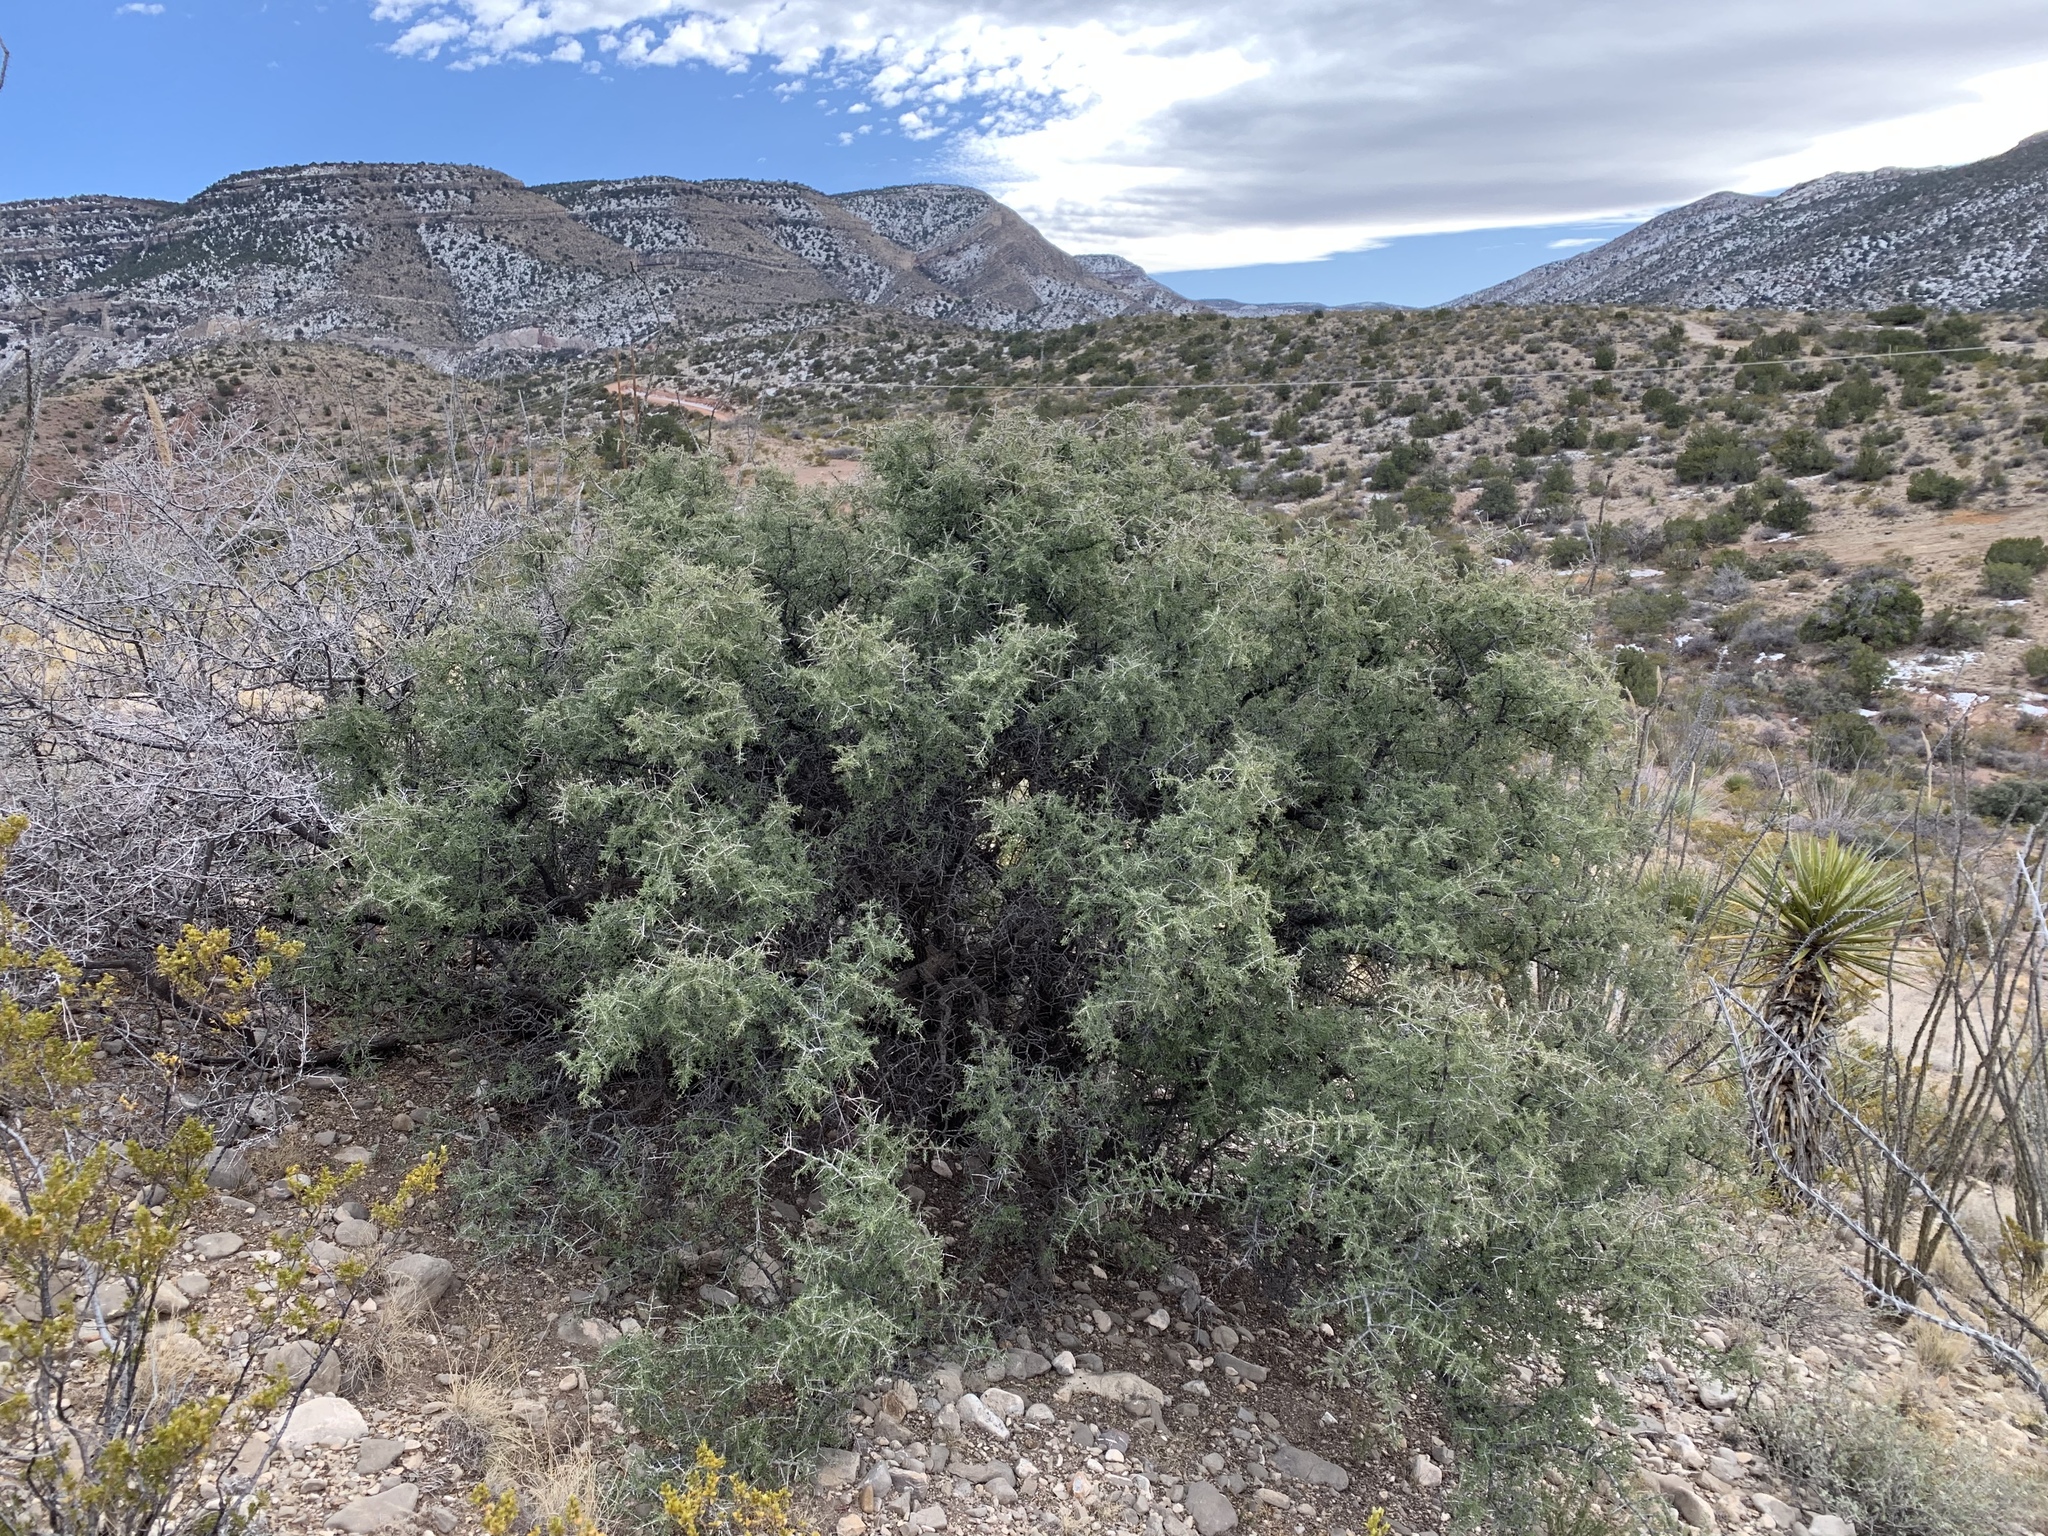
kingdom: Plantae
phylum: Tracheophyta
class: Magnoliopsida
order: Rosales
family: Rhamnaceae
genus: Condalia
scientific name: Condalia warnockii
